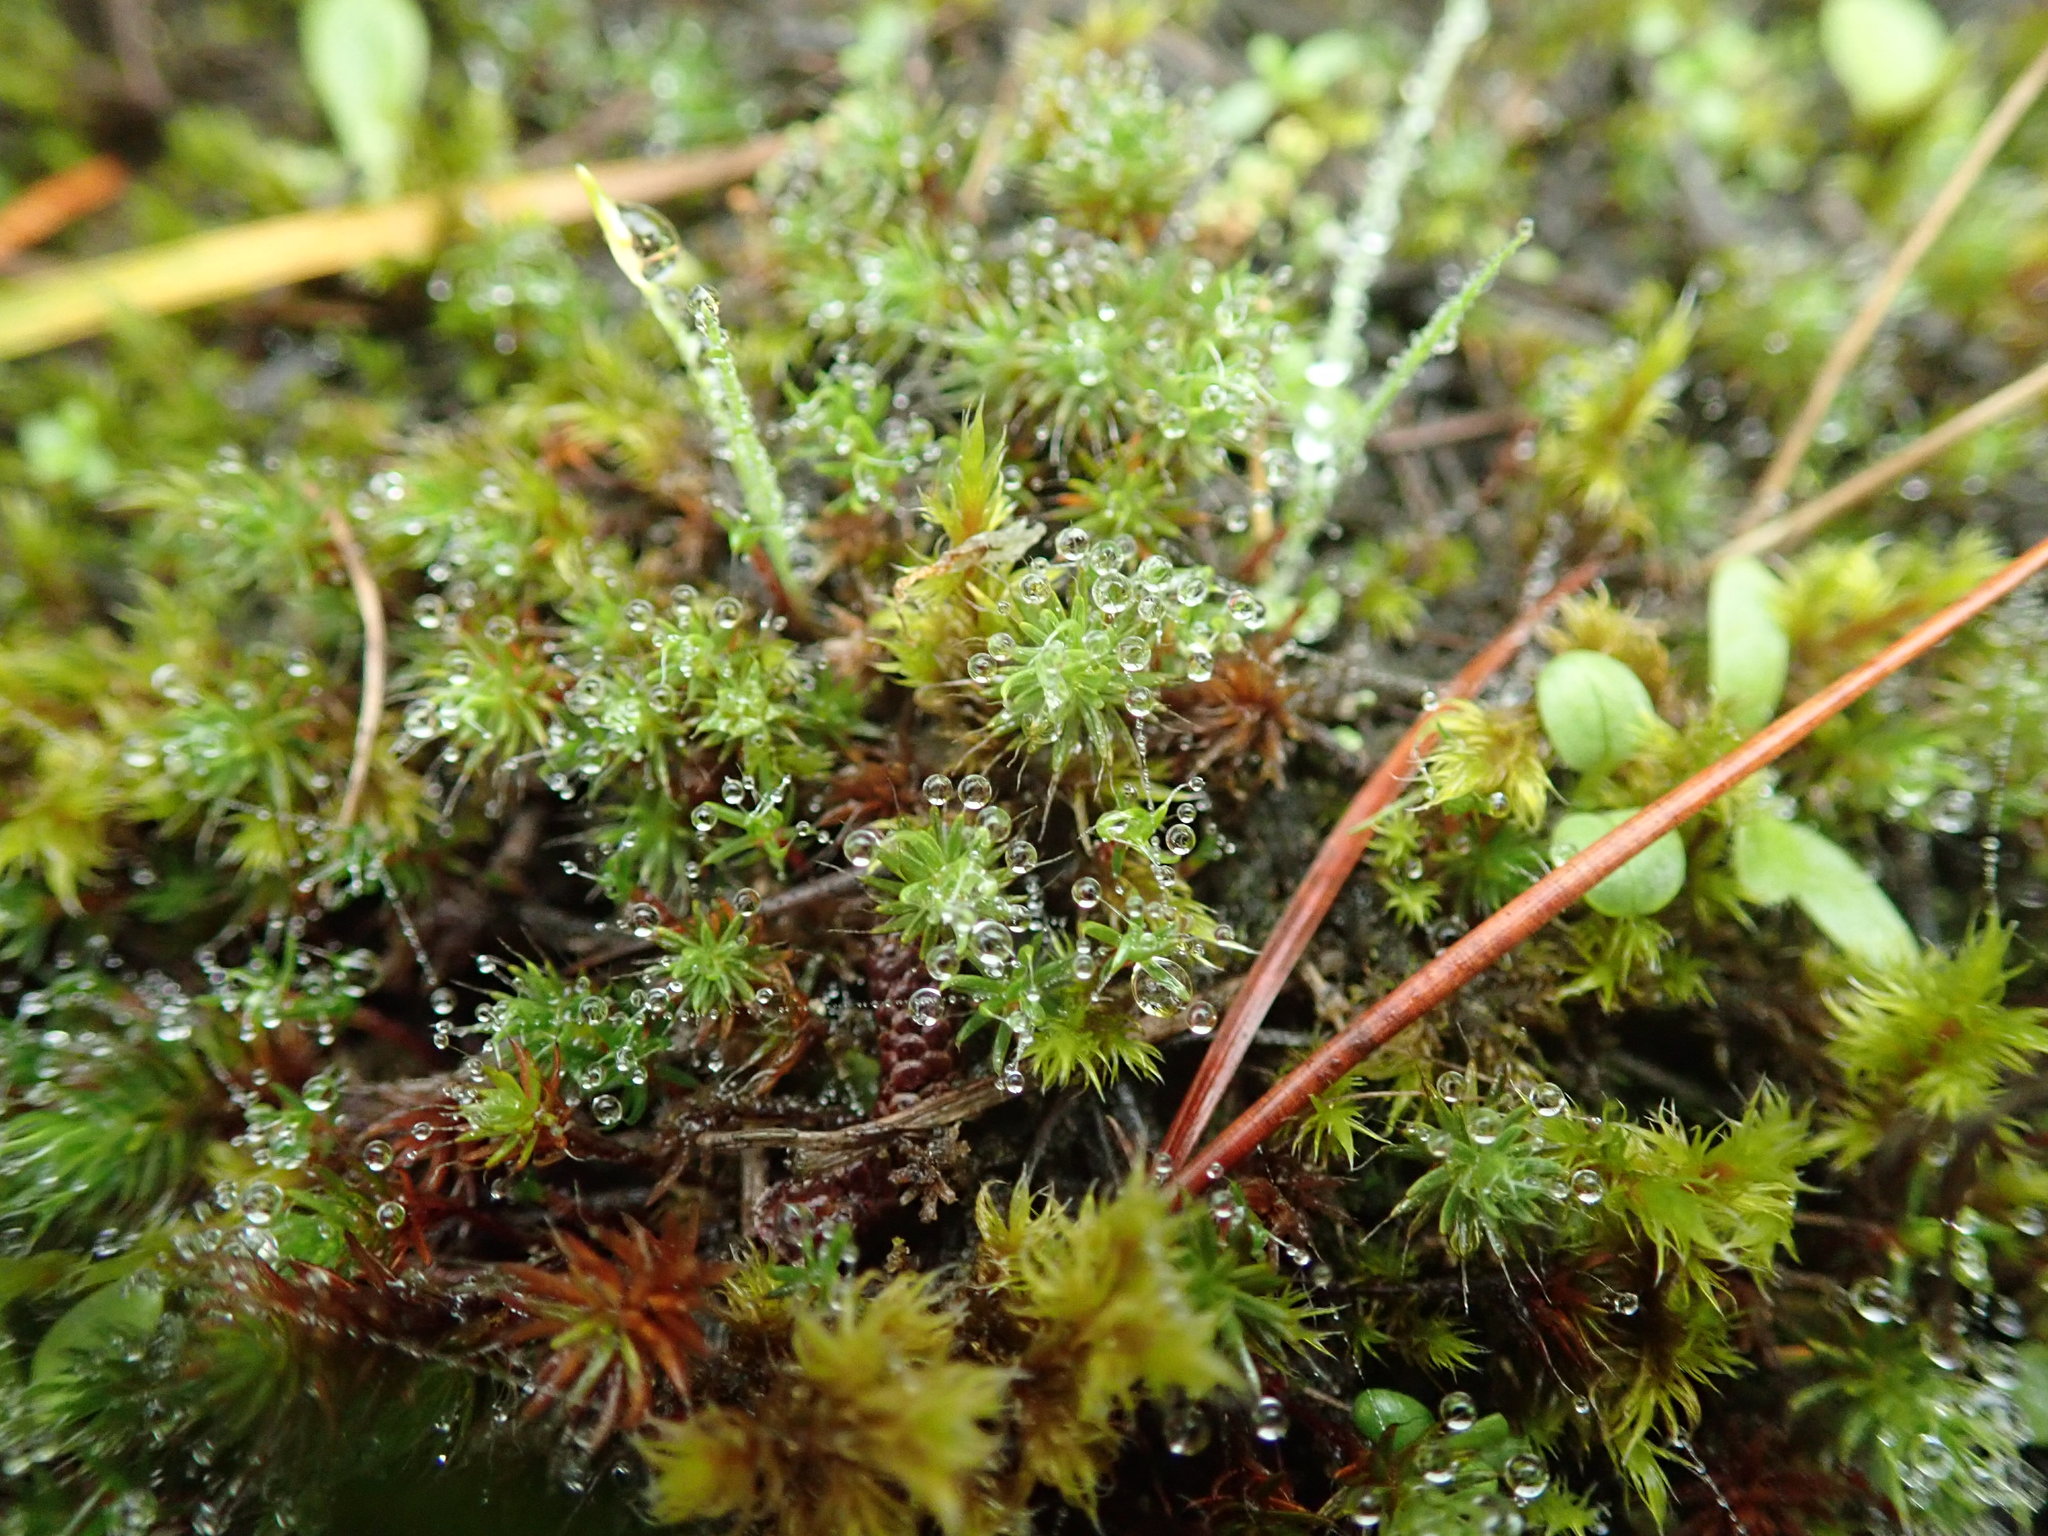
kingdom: Plantae
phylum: Bryophyta
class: Polytrichopsida
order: Polytrichales
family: Polytrichaceae
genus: Polytrichum
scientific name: Polytrichum piliferum
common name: Bristly haircap
